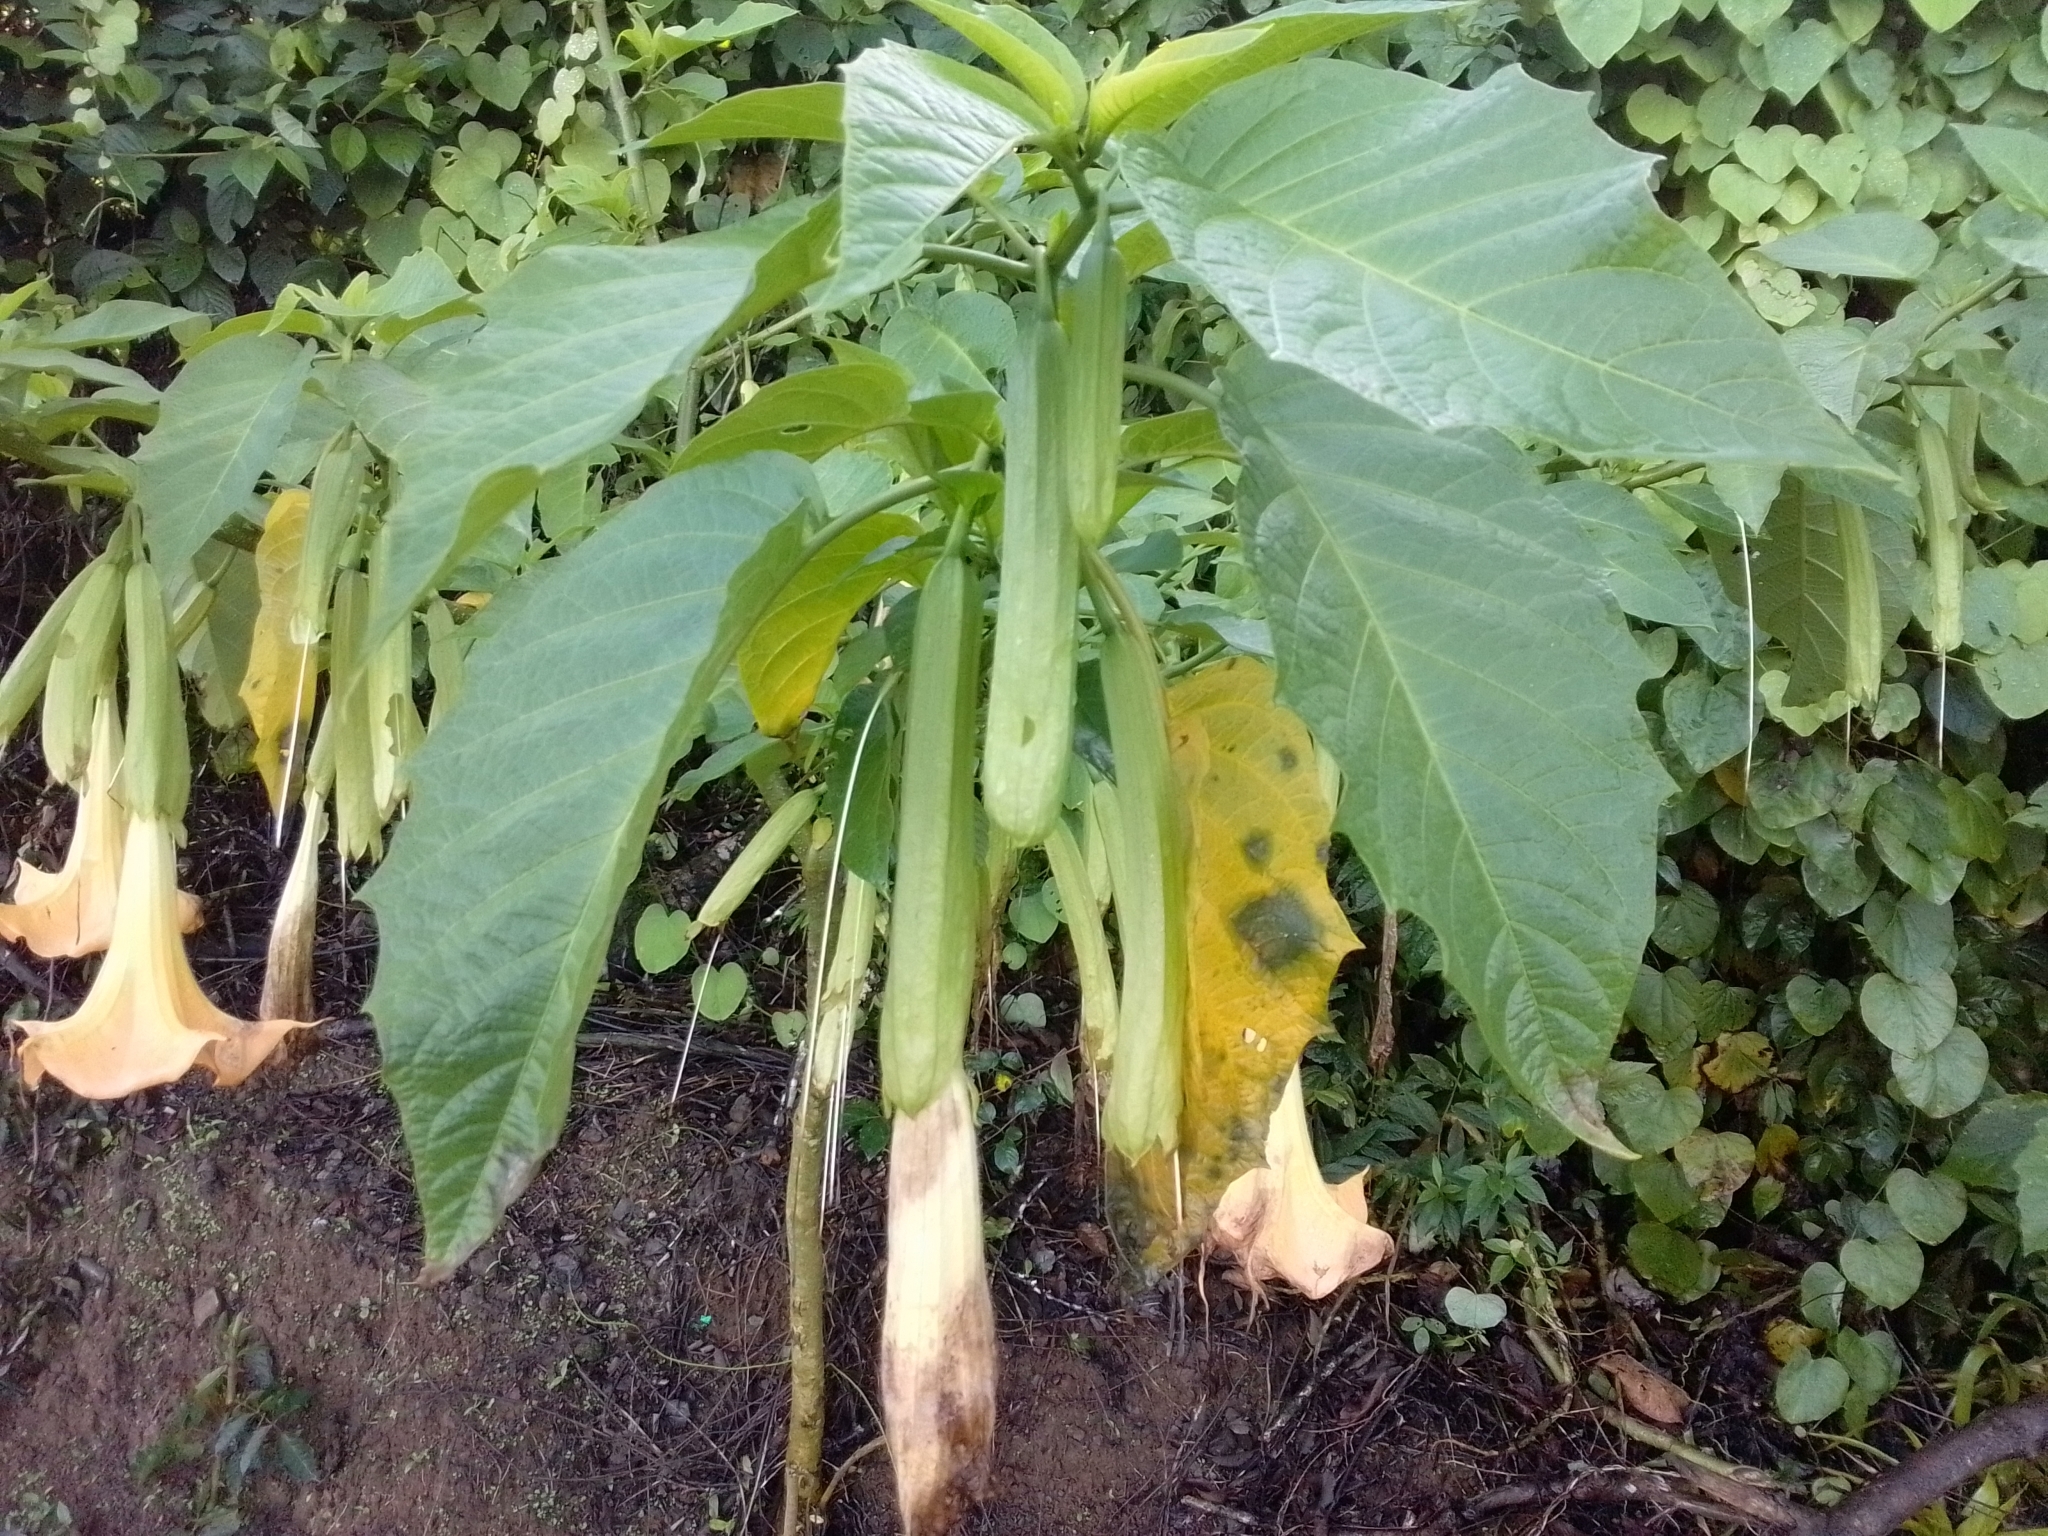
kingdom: Plantae
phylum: Tracheophyta
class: Magnoliopsida
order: Solanales
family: Solanaceae
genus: Brugmansia
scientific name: Brugmansia suaveolens
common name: Angel's tears
